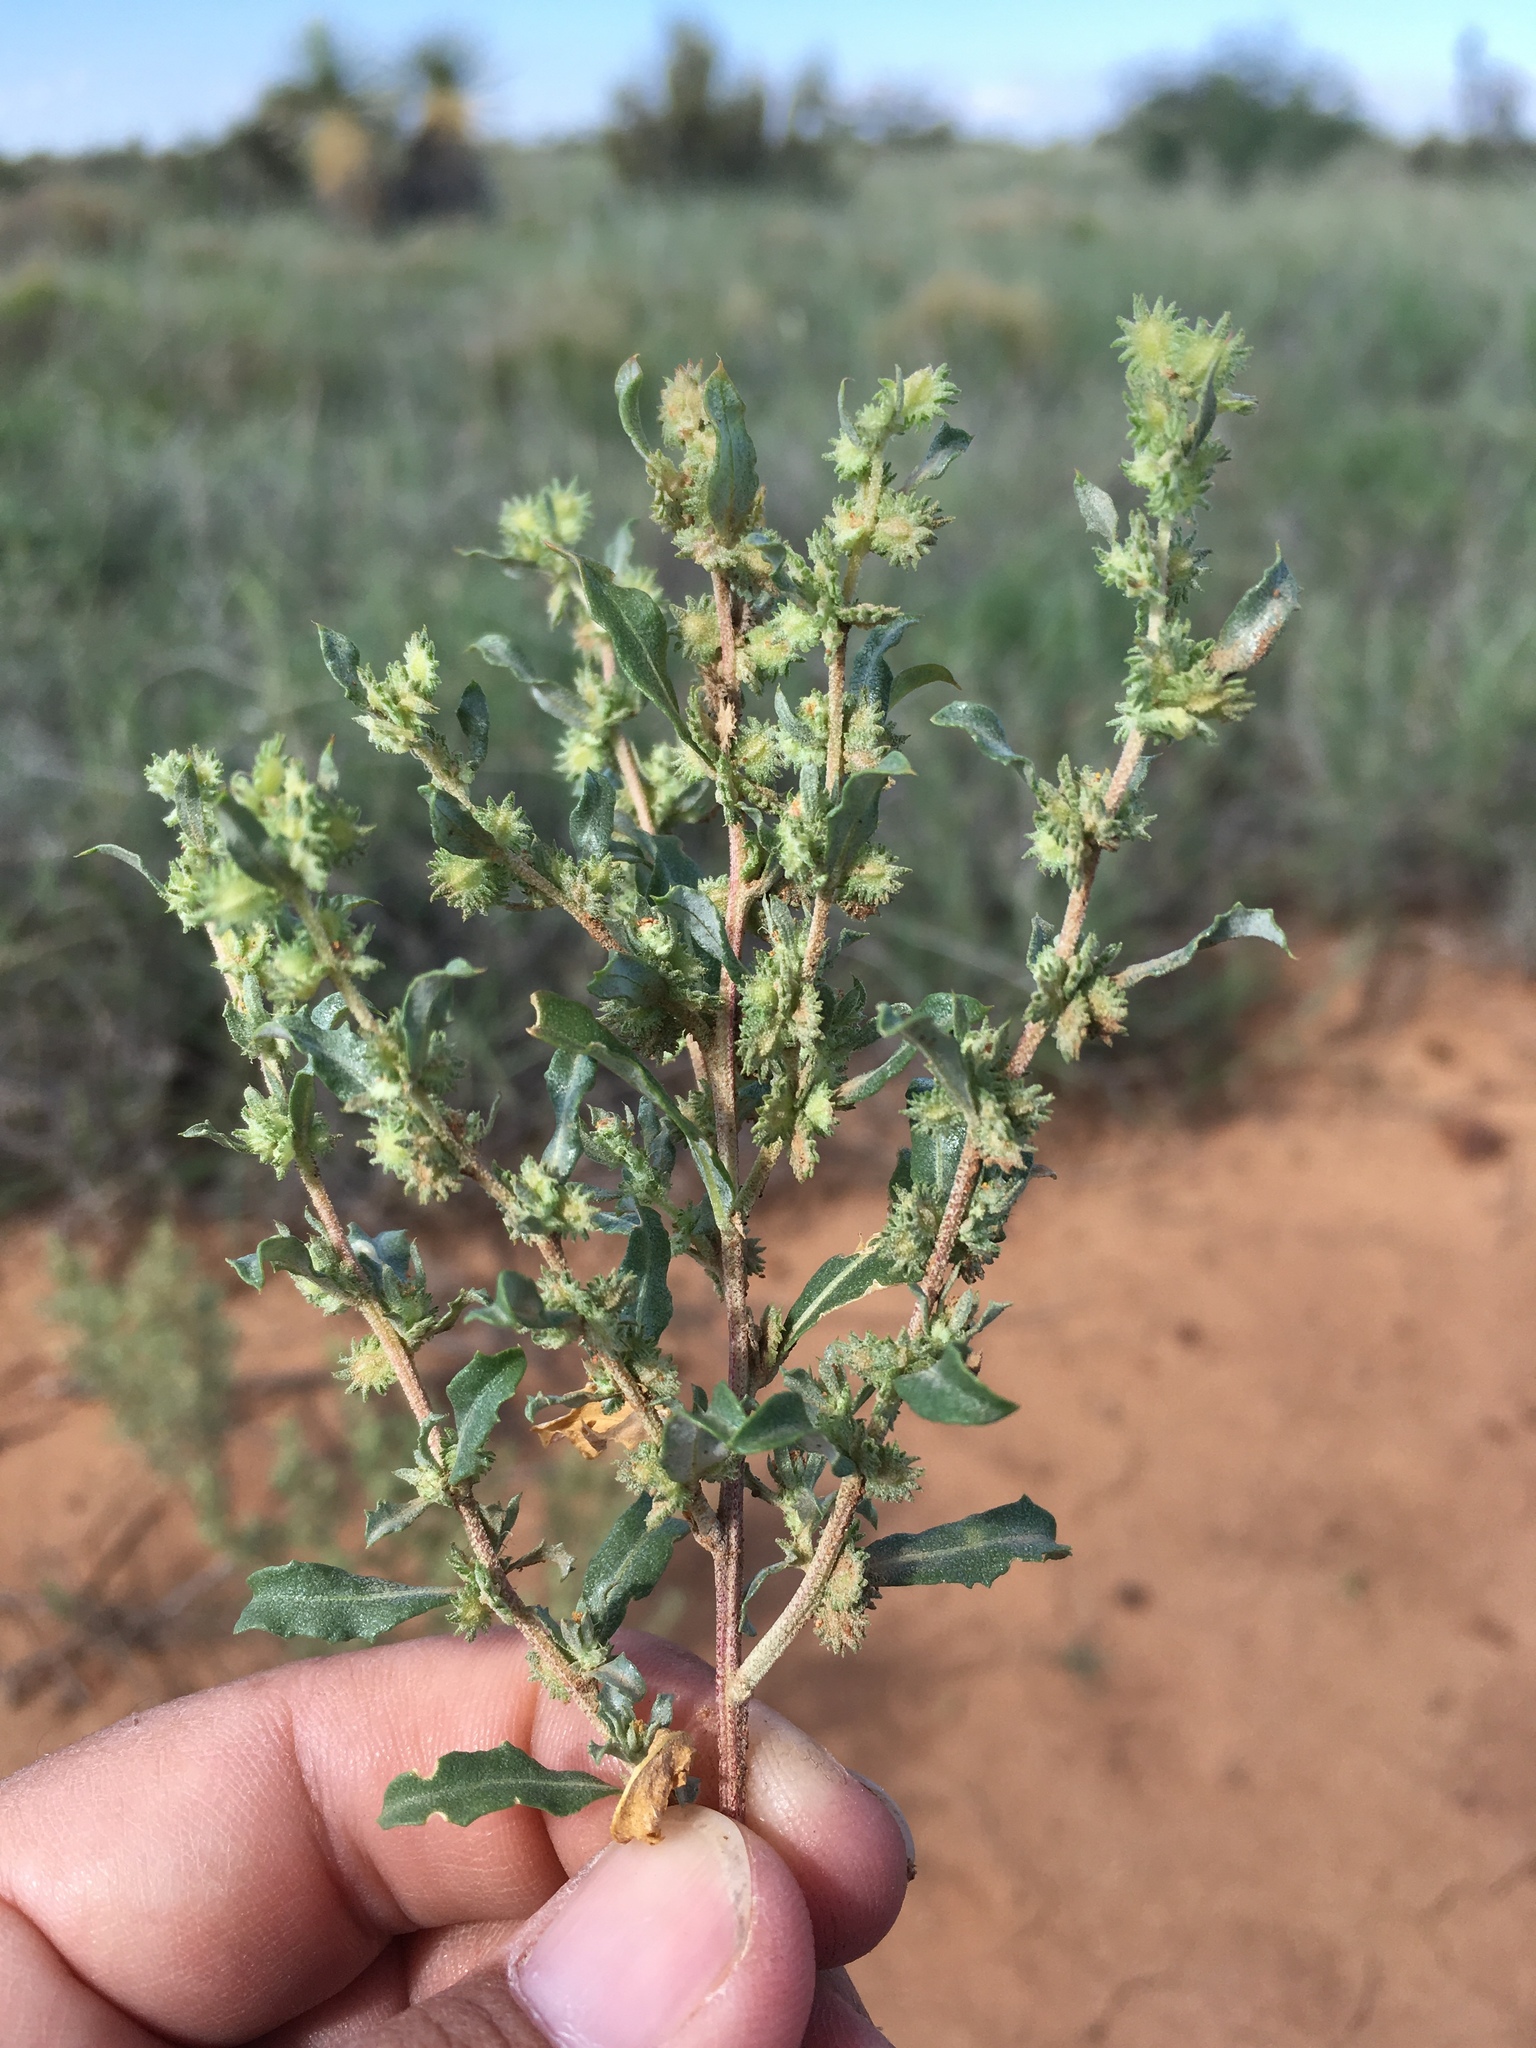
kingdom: Plantae
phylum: Tracheophyta
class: Magnoliopsida
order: Caryophyllales
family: Amaranthaceae
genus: Atriplex
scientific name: Atriplex elegans
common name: Wheelscale orach
